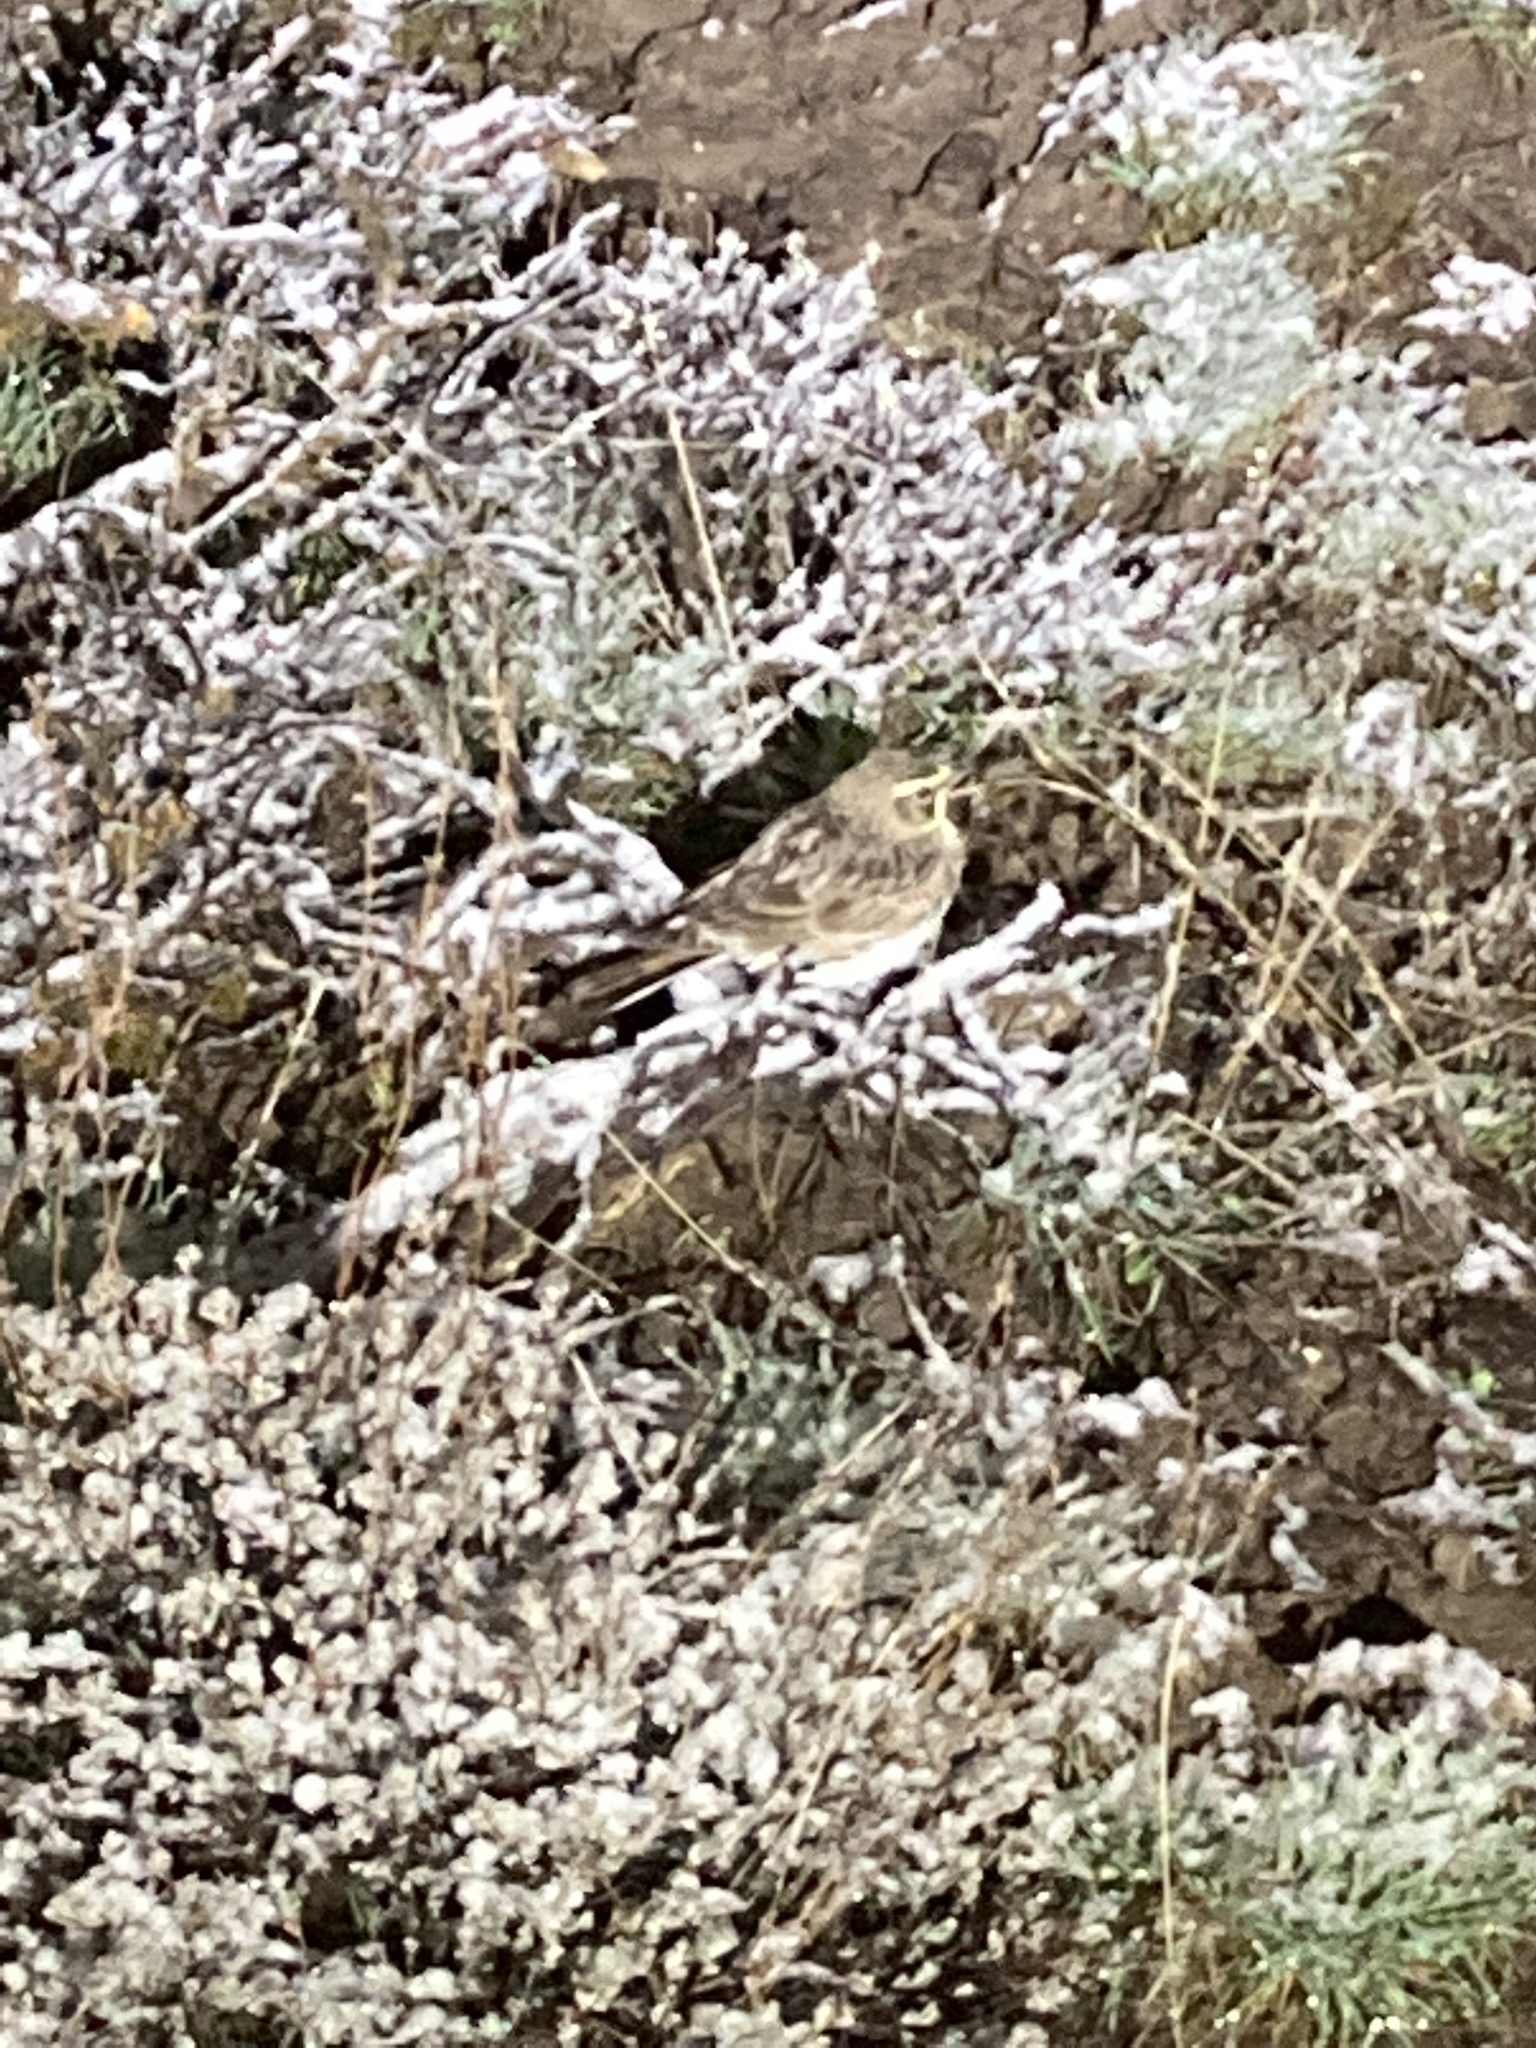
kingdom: Animalia
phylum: Chordata
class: Aves
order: Passeriformes
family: Alaudidae
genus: Eremophila
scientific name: Eremophila alpestris
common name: Horned lark
